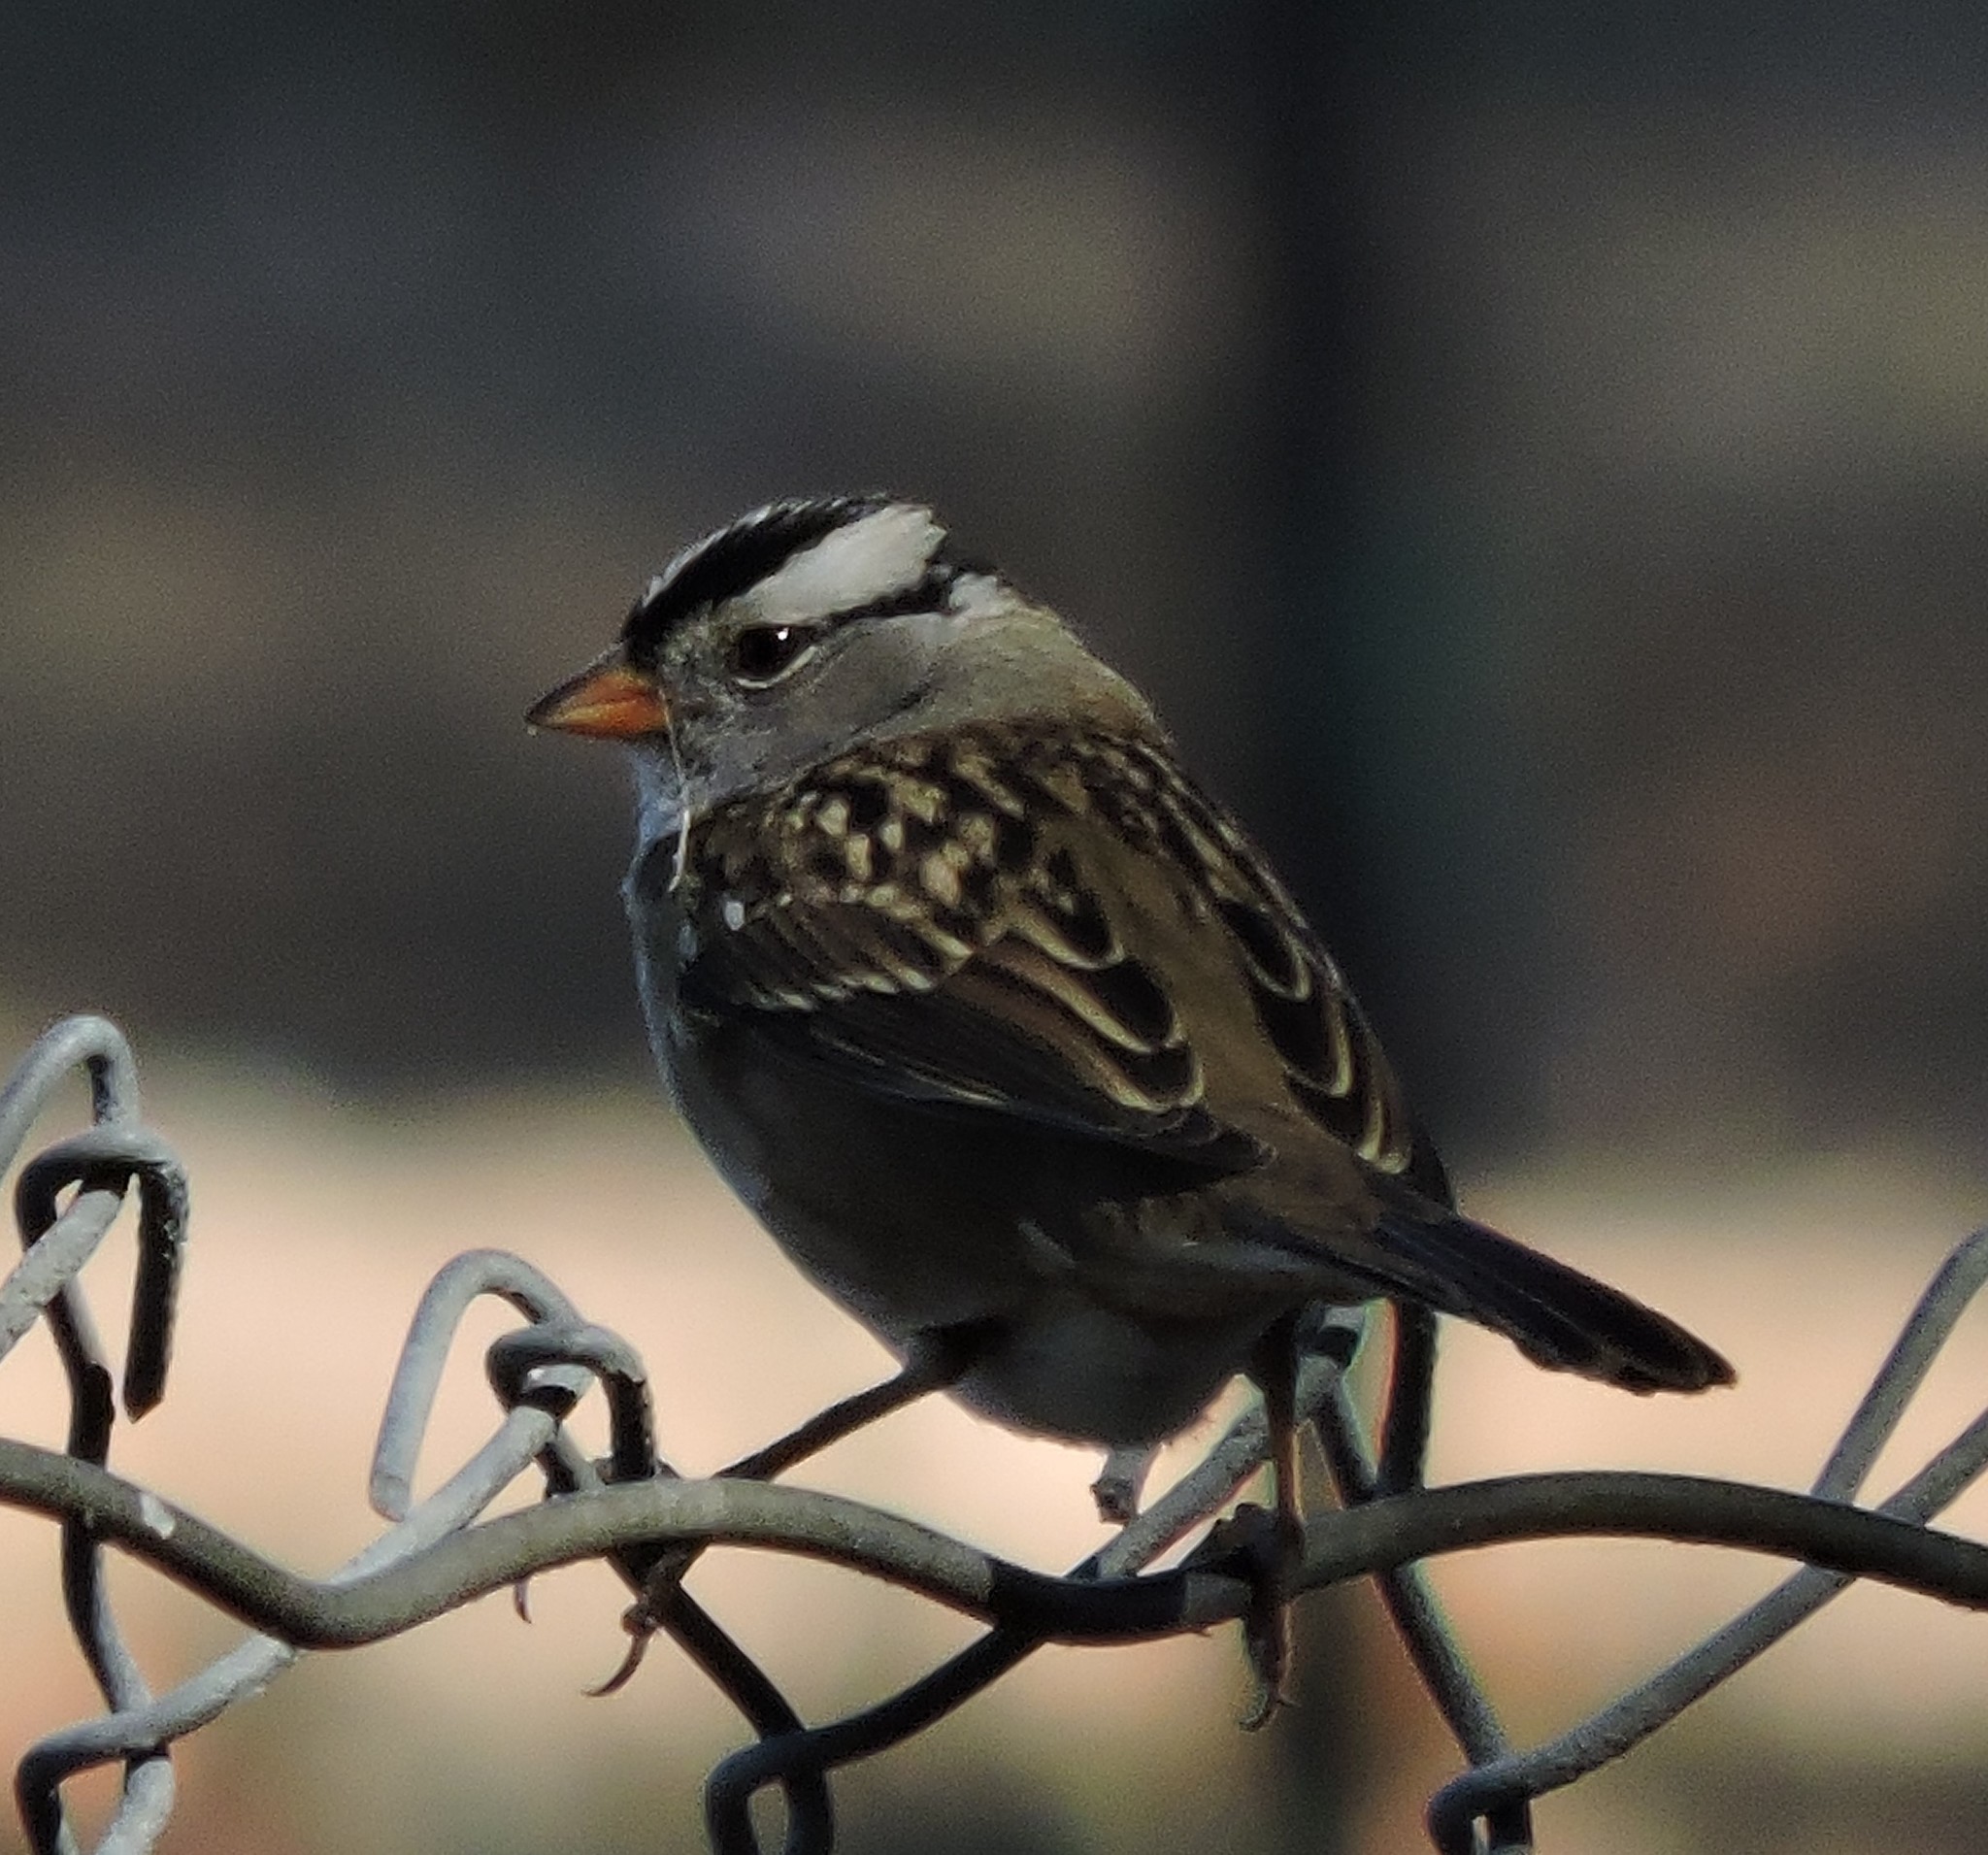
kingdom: Animalia
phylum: Chordata
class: Aves
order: Passeriformes
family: Passerellidae
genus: Zonotrichia
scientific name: Zonotrichia leucophrys
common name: White-crowned sparrow
